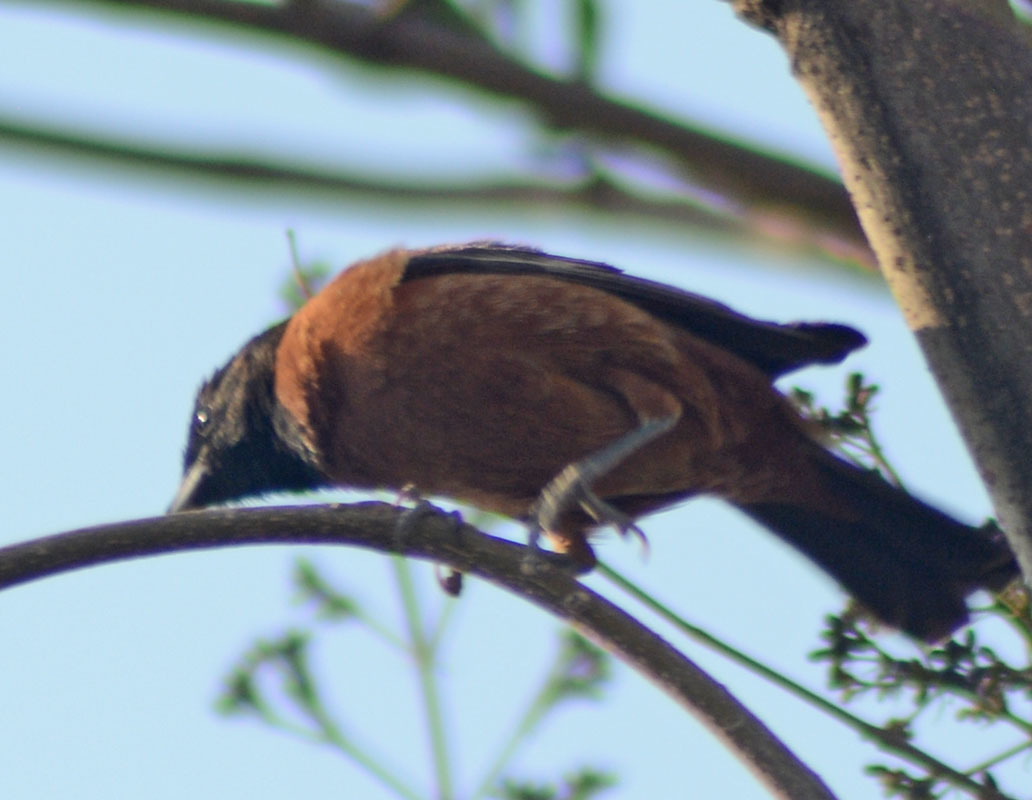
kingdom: Animalia
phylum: Chordata
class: Aves
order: Passeriformes
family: Icteridae
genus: Icterus
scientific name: Icterus spurius
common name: Orchard oriole
